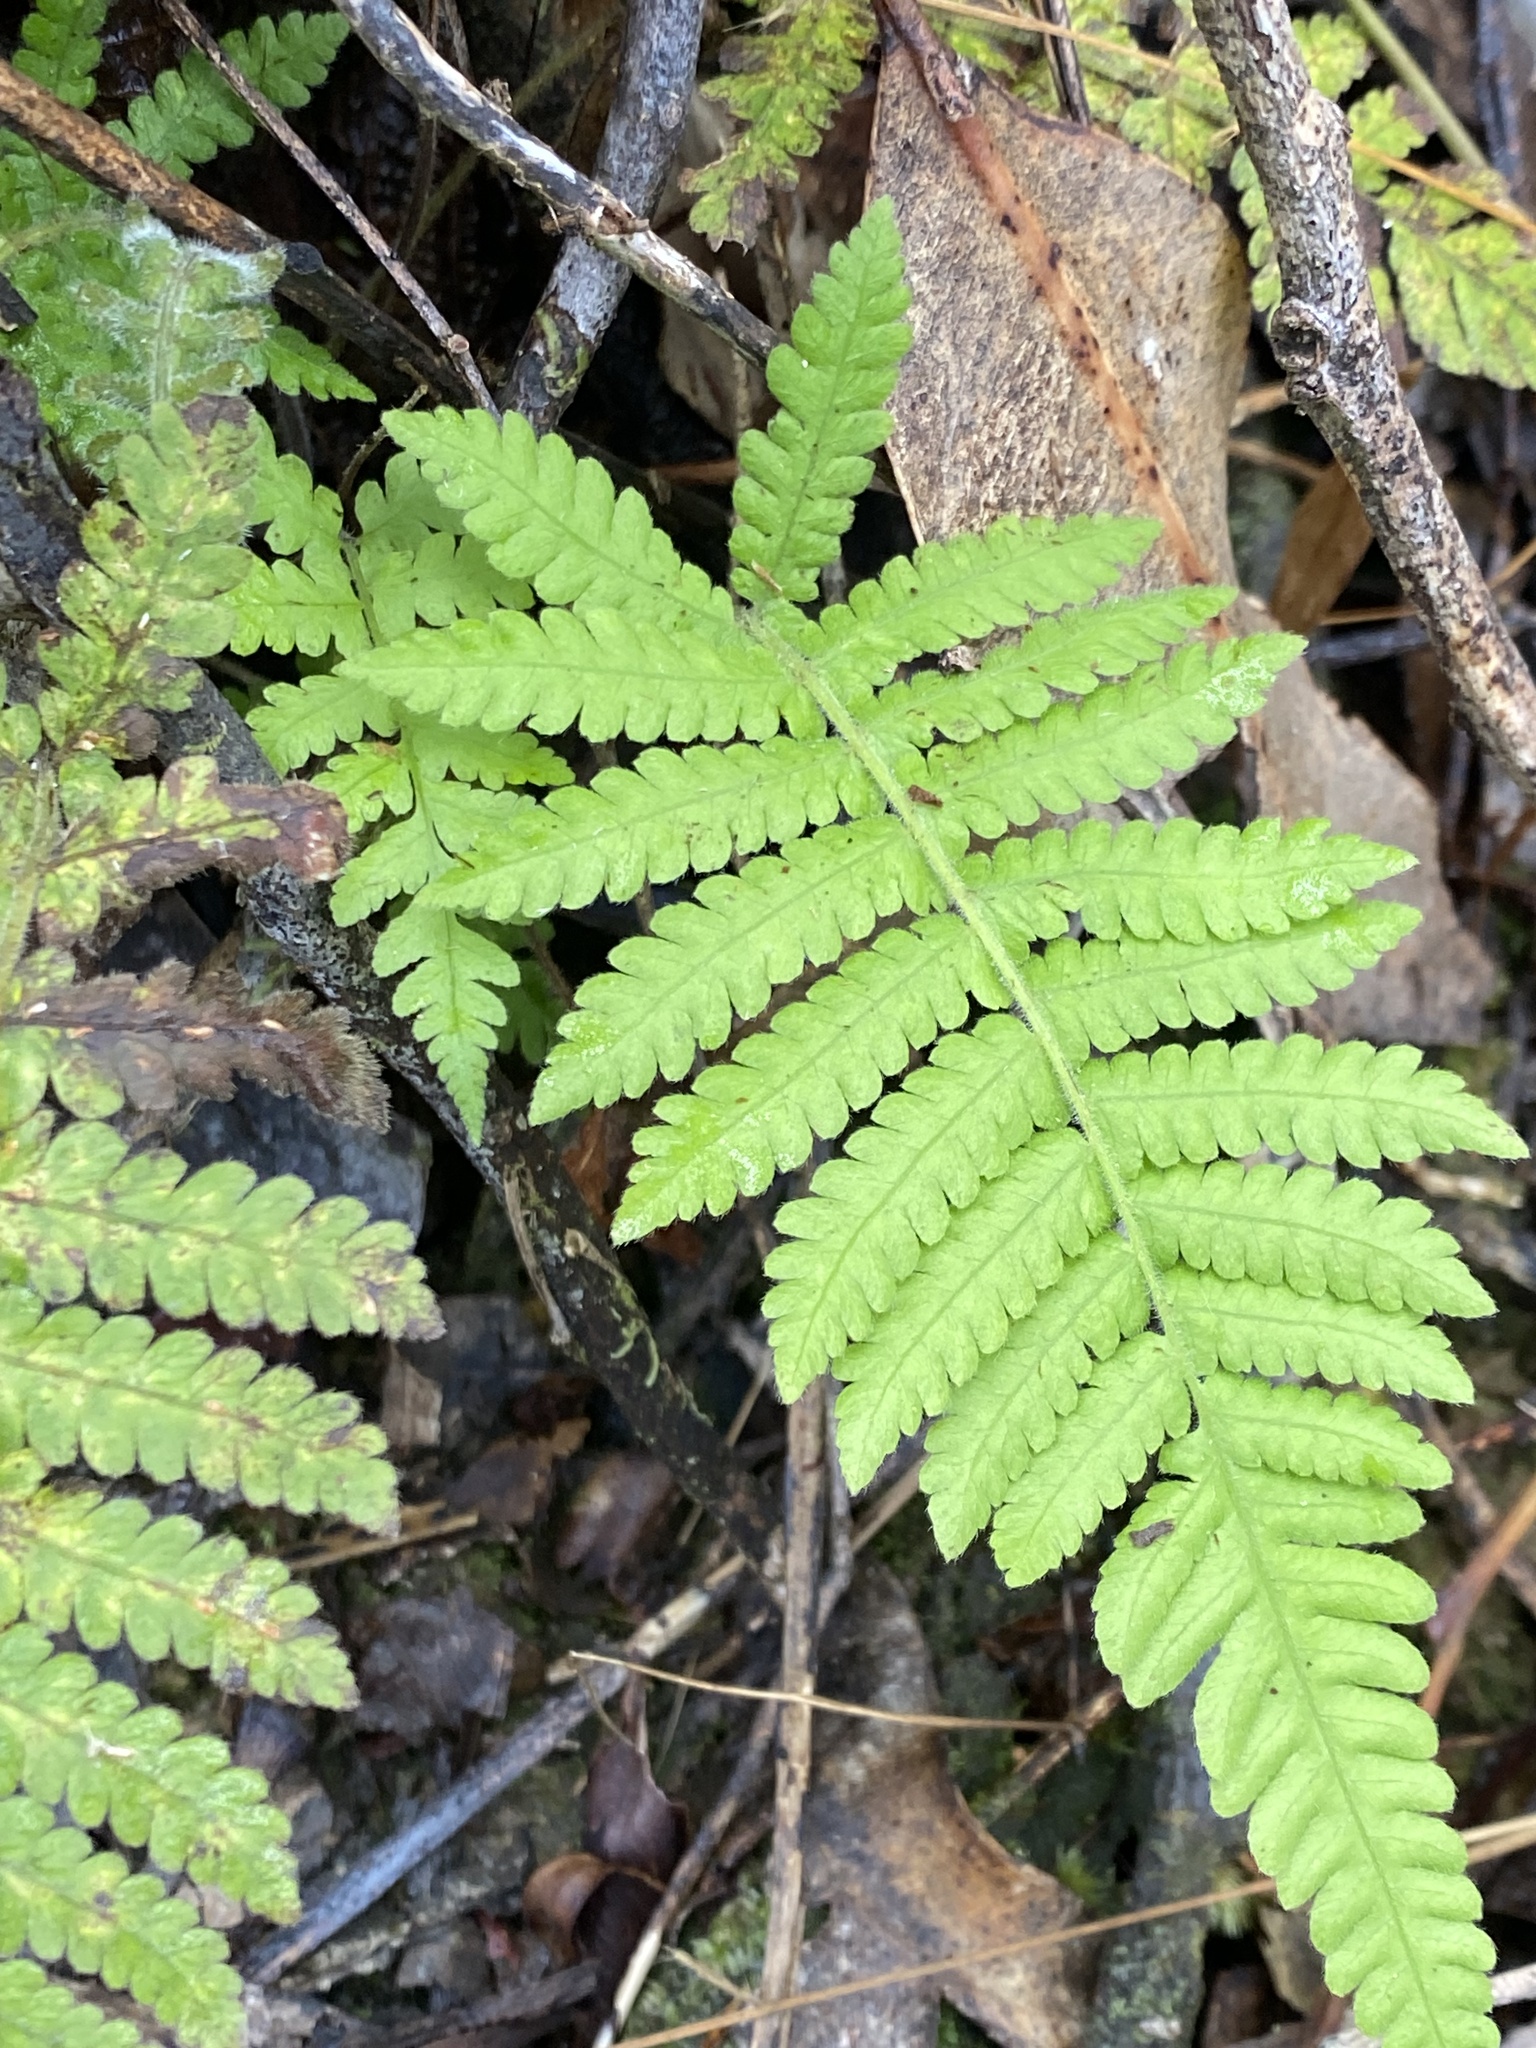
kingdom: Plantae
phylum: Tracheophyta
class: Polypodiopsida
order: Polypodiales
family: Thelypteridaceae
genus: Christella
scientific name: Christella parasitica
